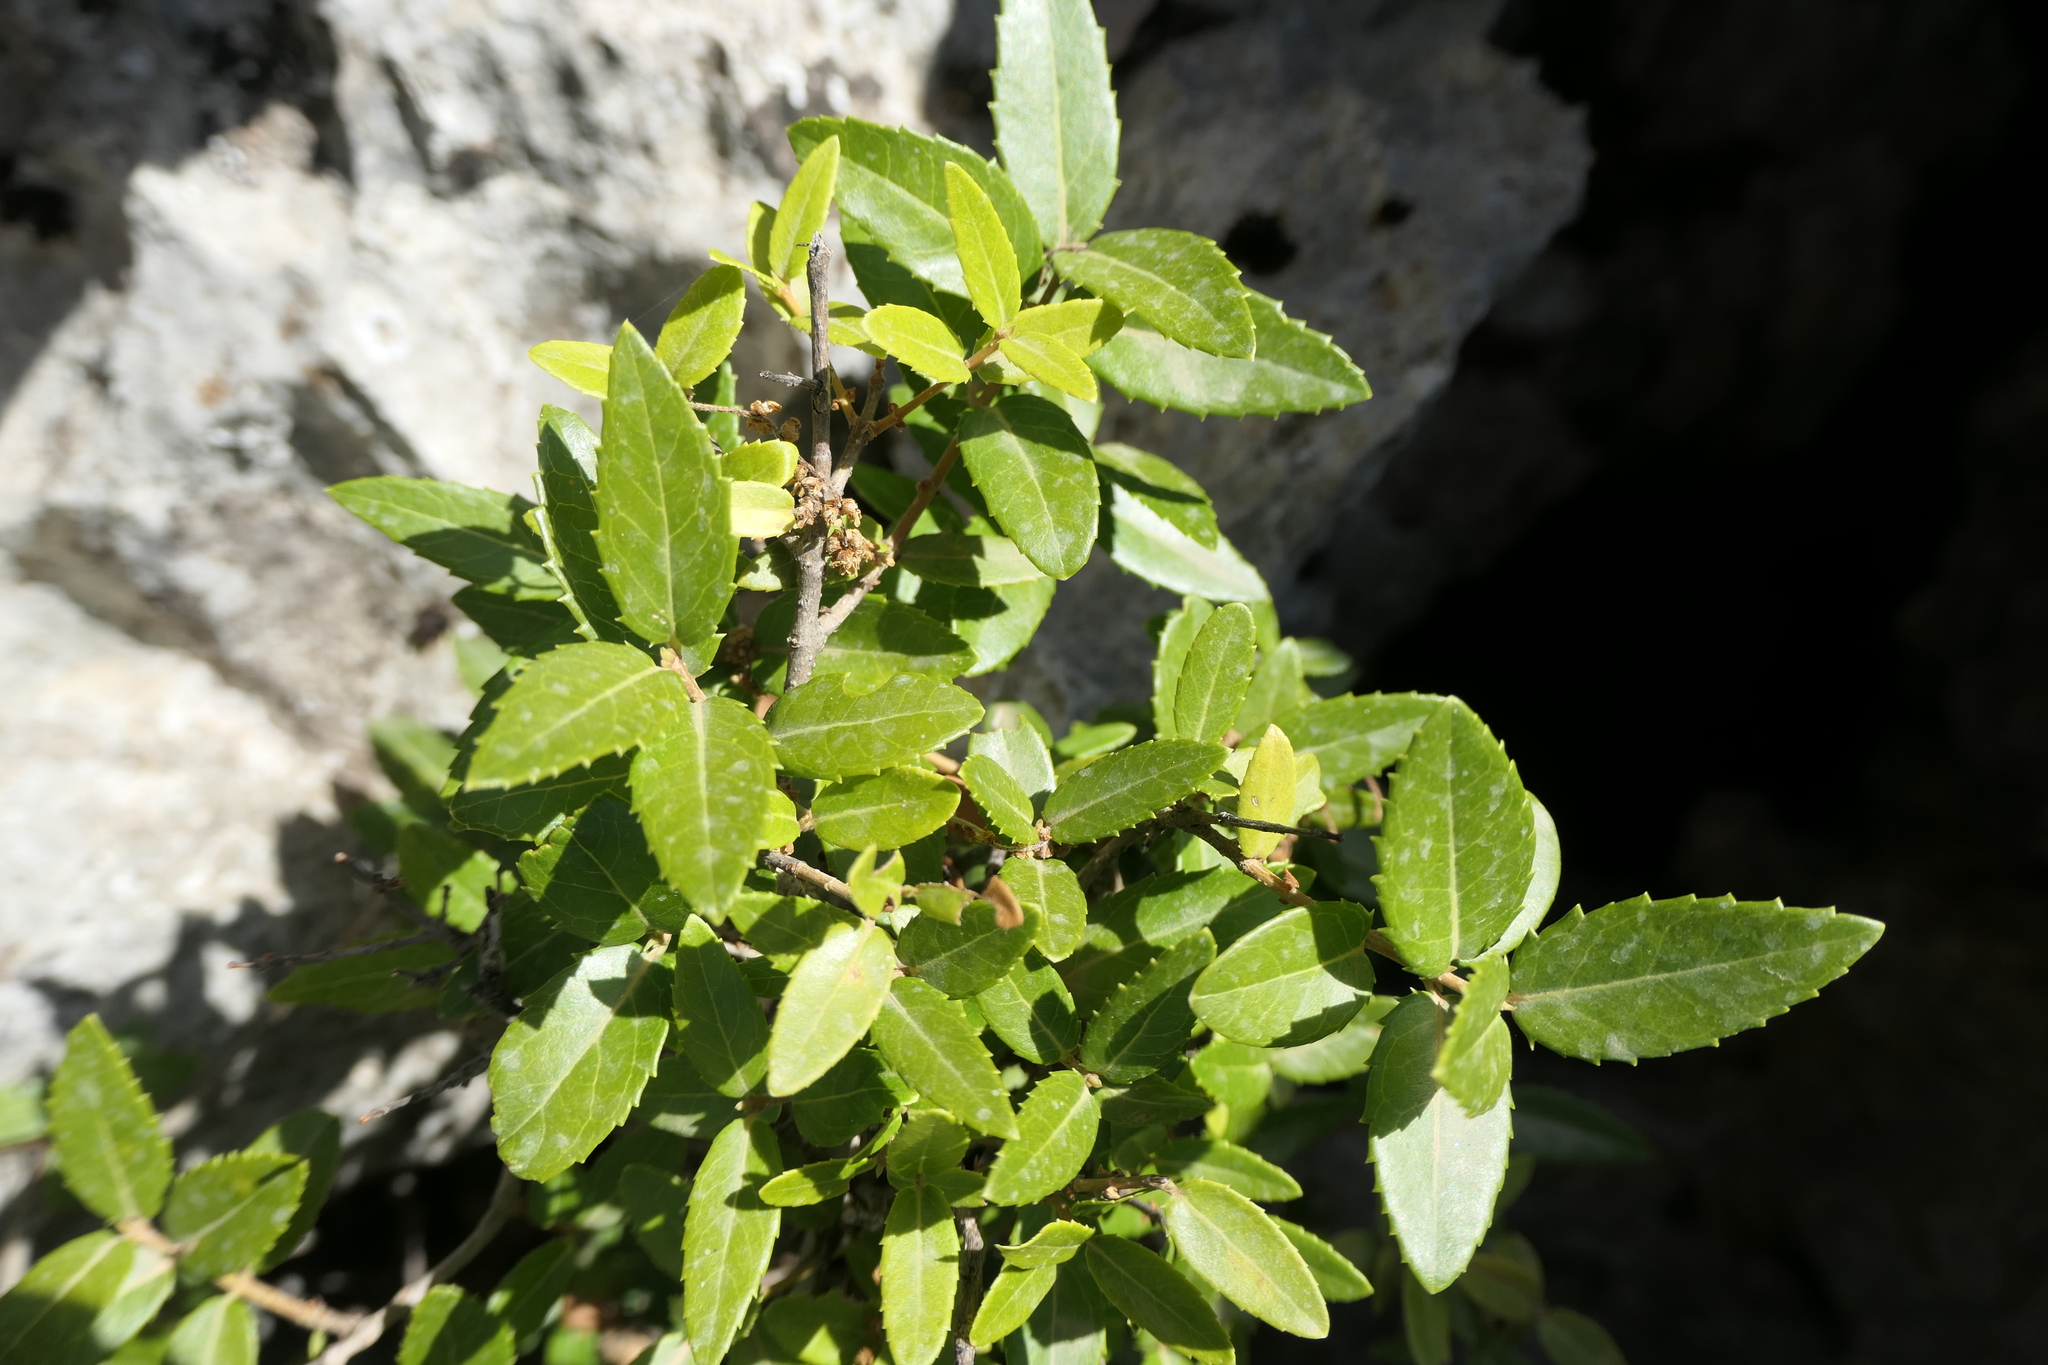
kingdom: Plantae
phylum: Tracheophyta
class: Magnoliopsida
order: Lamiales
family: Oleaceae
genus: Phillyrea
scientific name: Phillyrea latifolia
